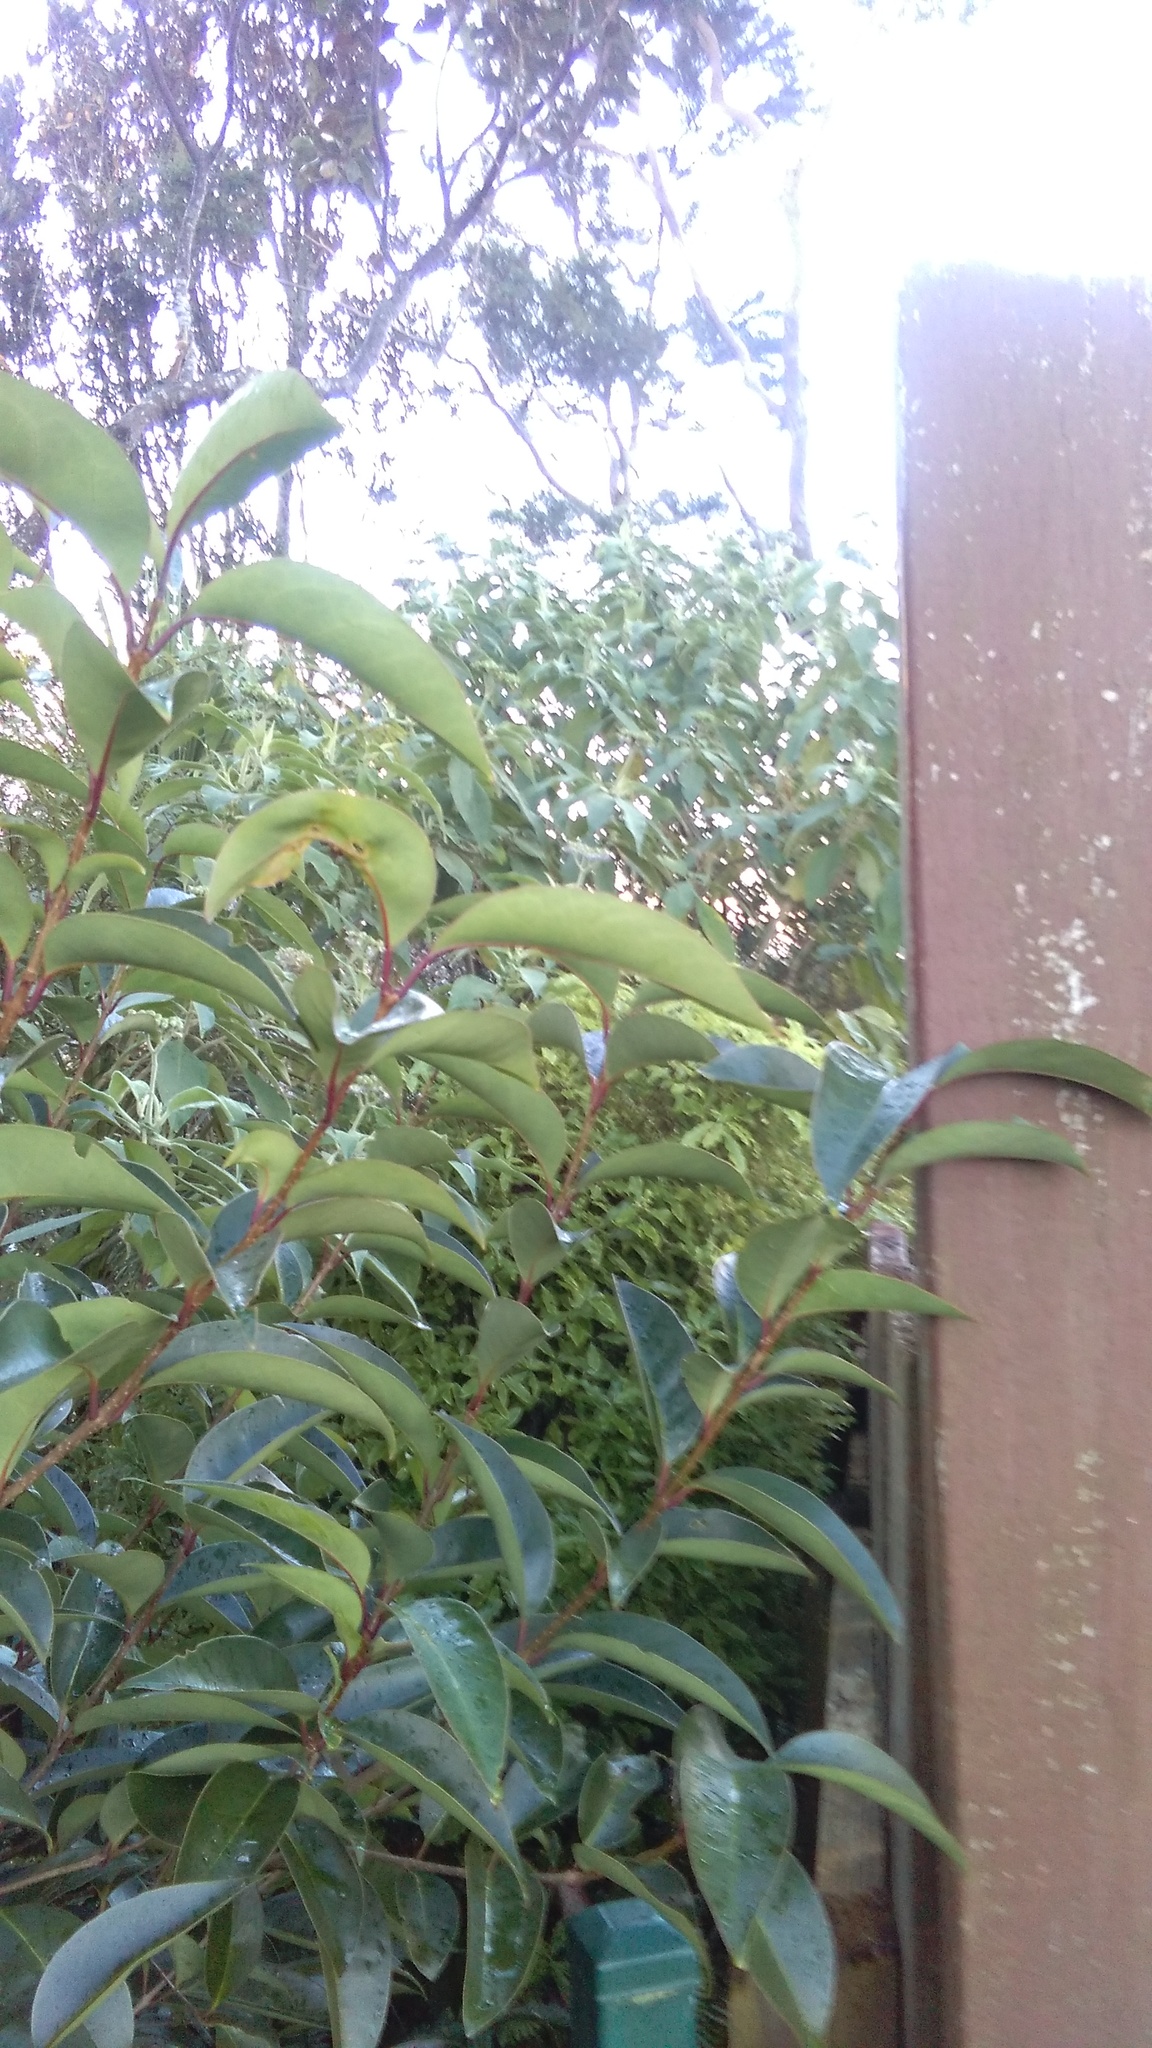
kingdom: Plantae
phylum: Tracheophyta
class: Magnoliopsida
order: Lamiales
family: Oleaceae
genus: Ligustrum
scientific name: Ligustrum lucidum
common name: Glossy privet
